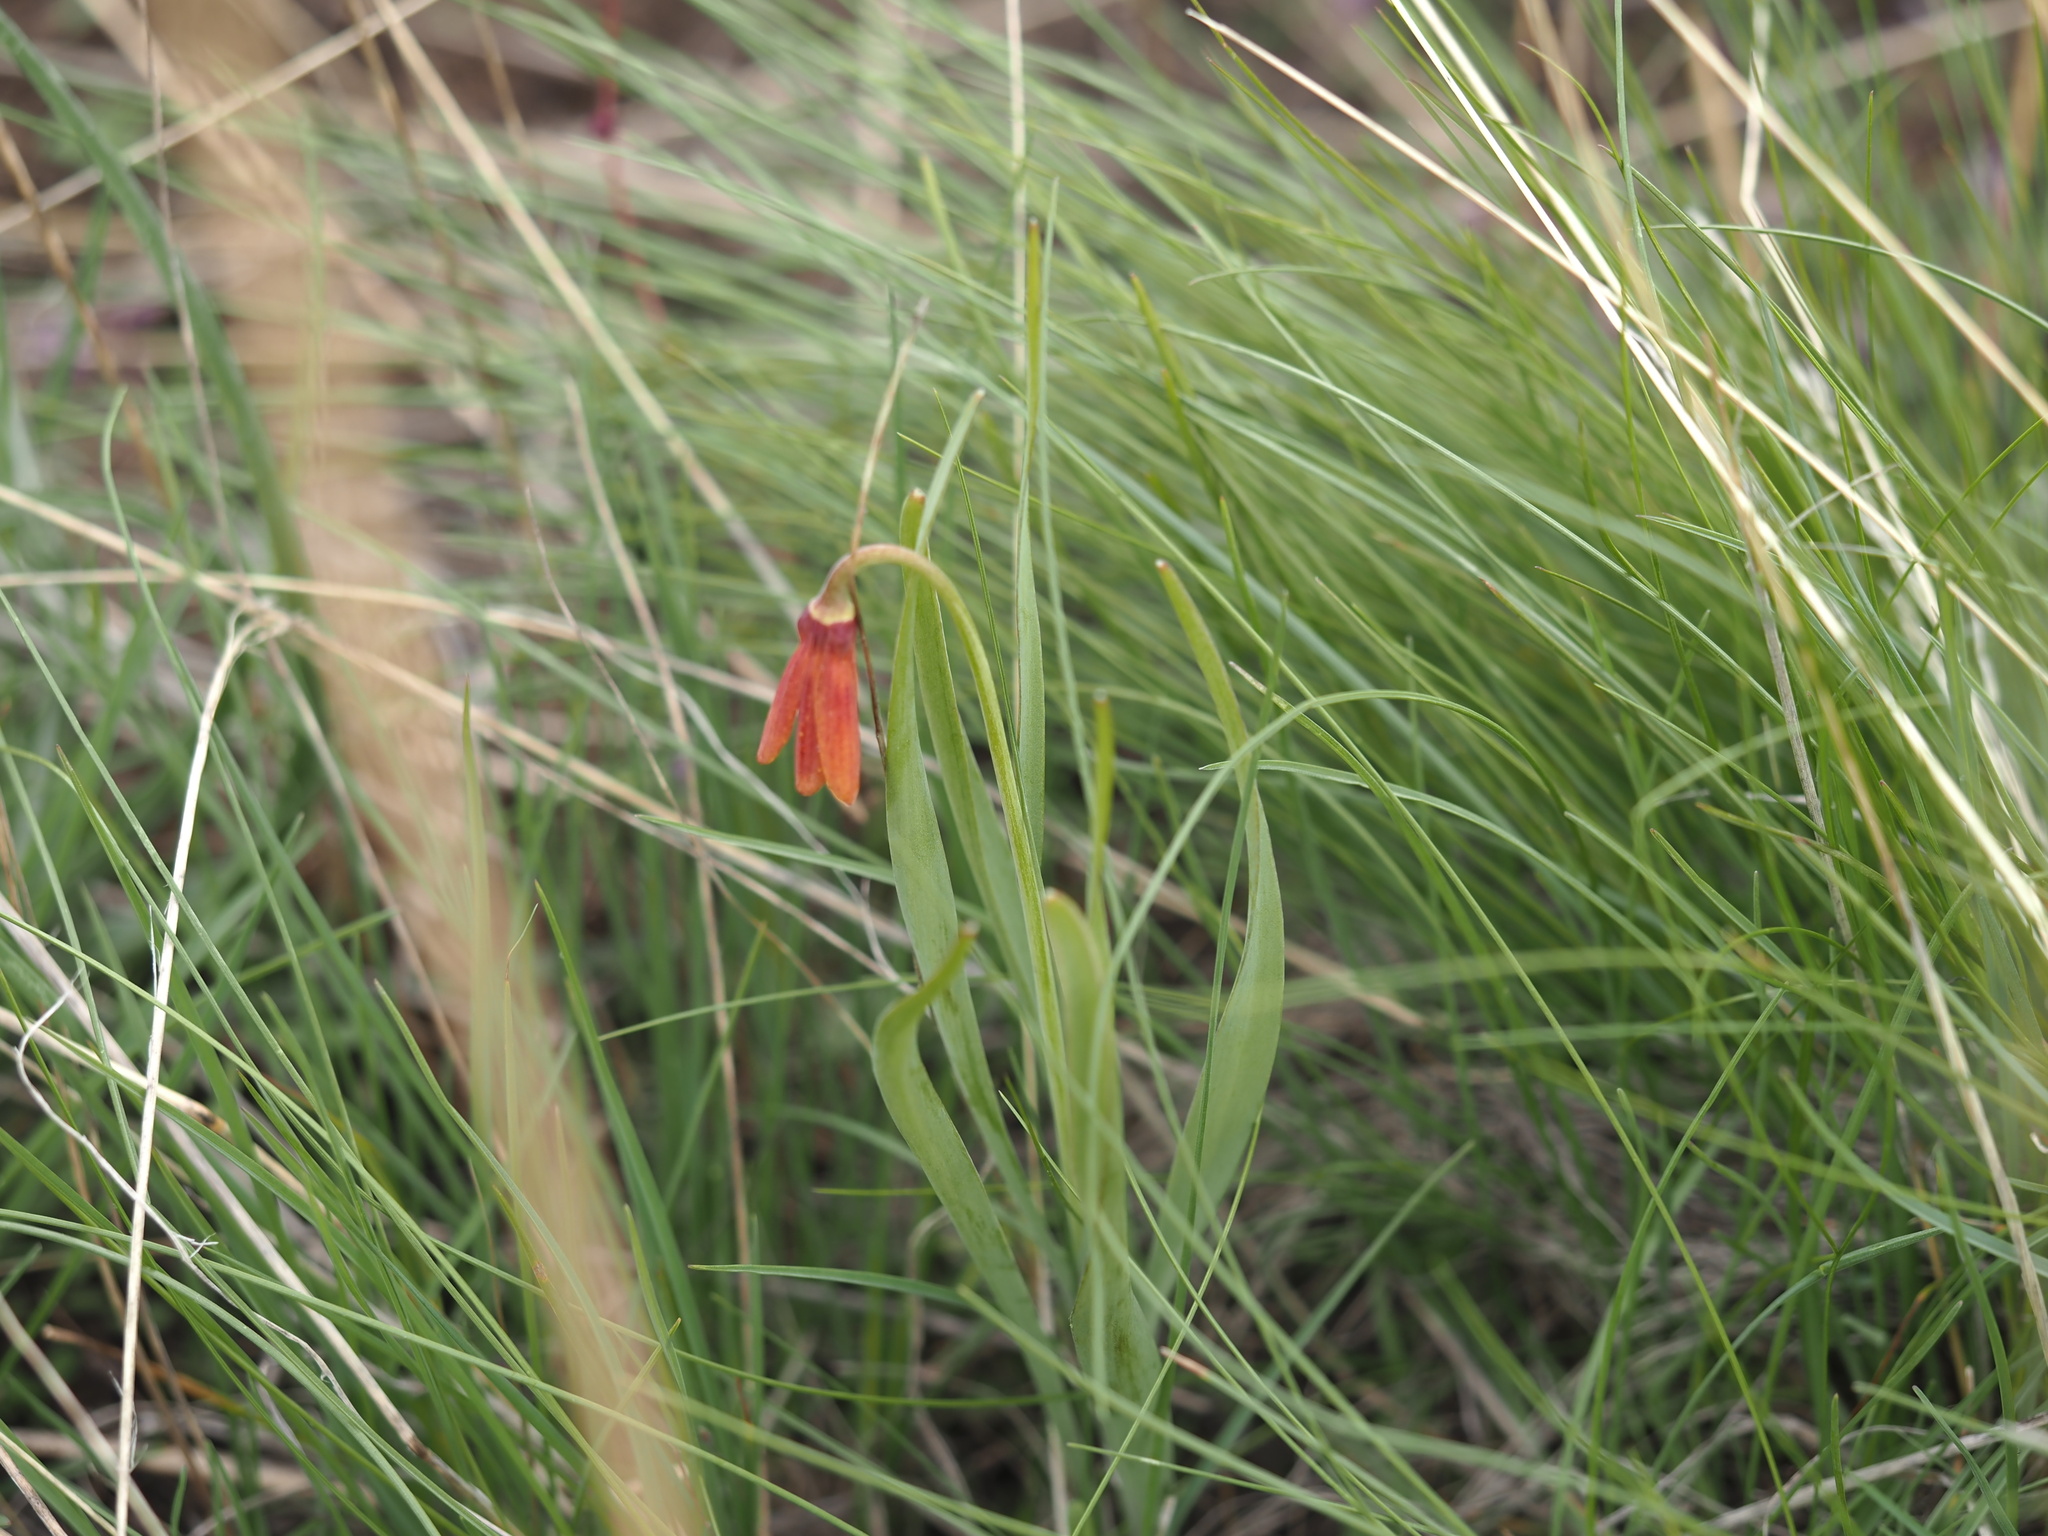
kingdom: Plantae
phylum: Tracheophyta
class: Liliopsida
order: Liliales
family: Liliaceae
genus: Fritillaria
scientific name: Fritillaria pudica
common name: Yellow fritillary
